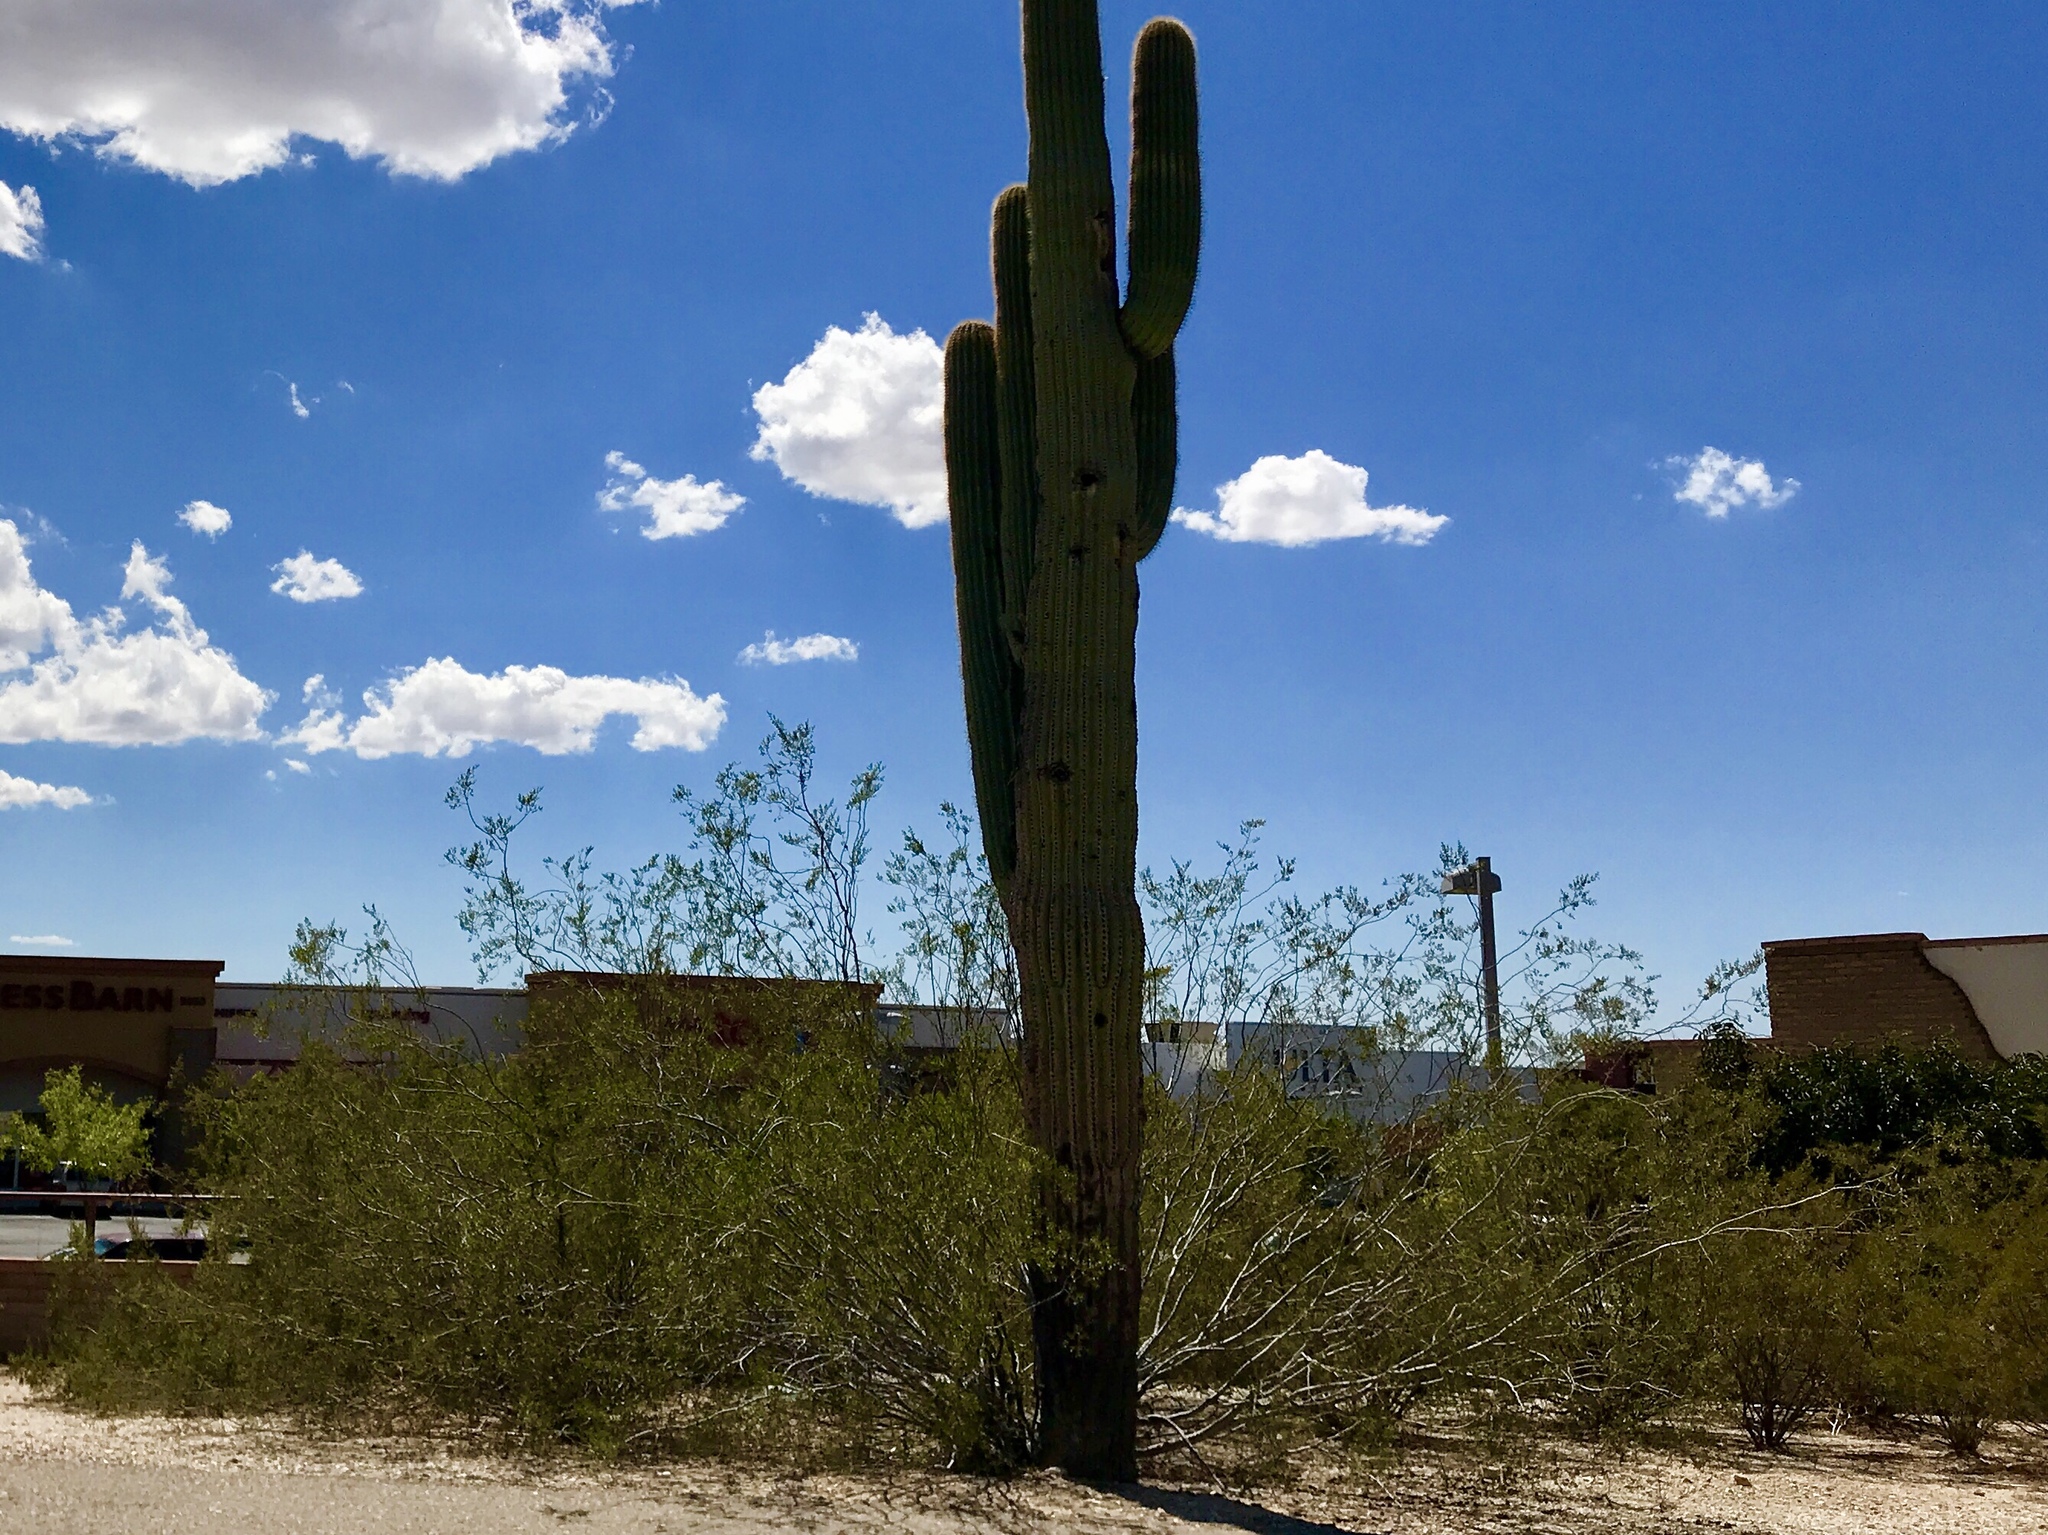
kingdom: Plantae
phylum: Tracheophyta
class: Magnoliopsida
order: Zygophyllales
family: Zygophyllaceae
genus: Larrea
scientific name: Larrea tridentata
